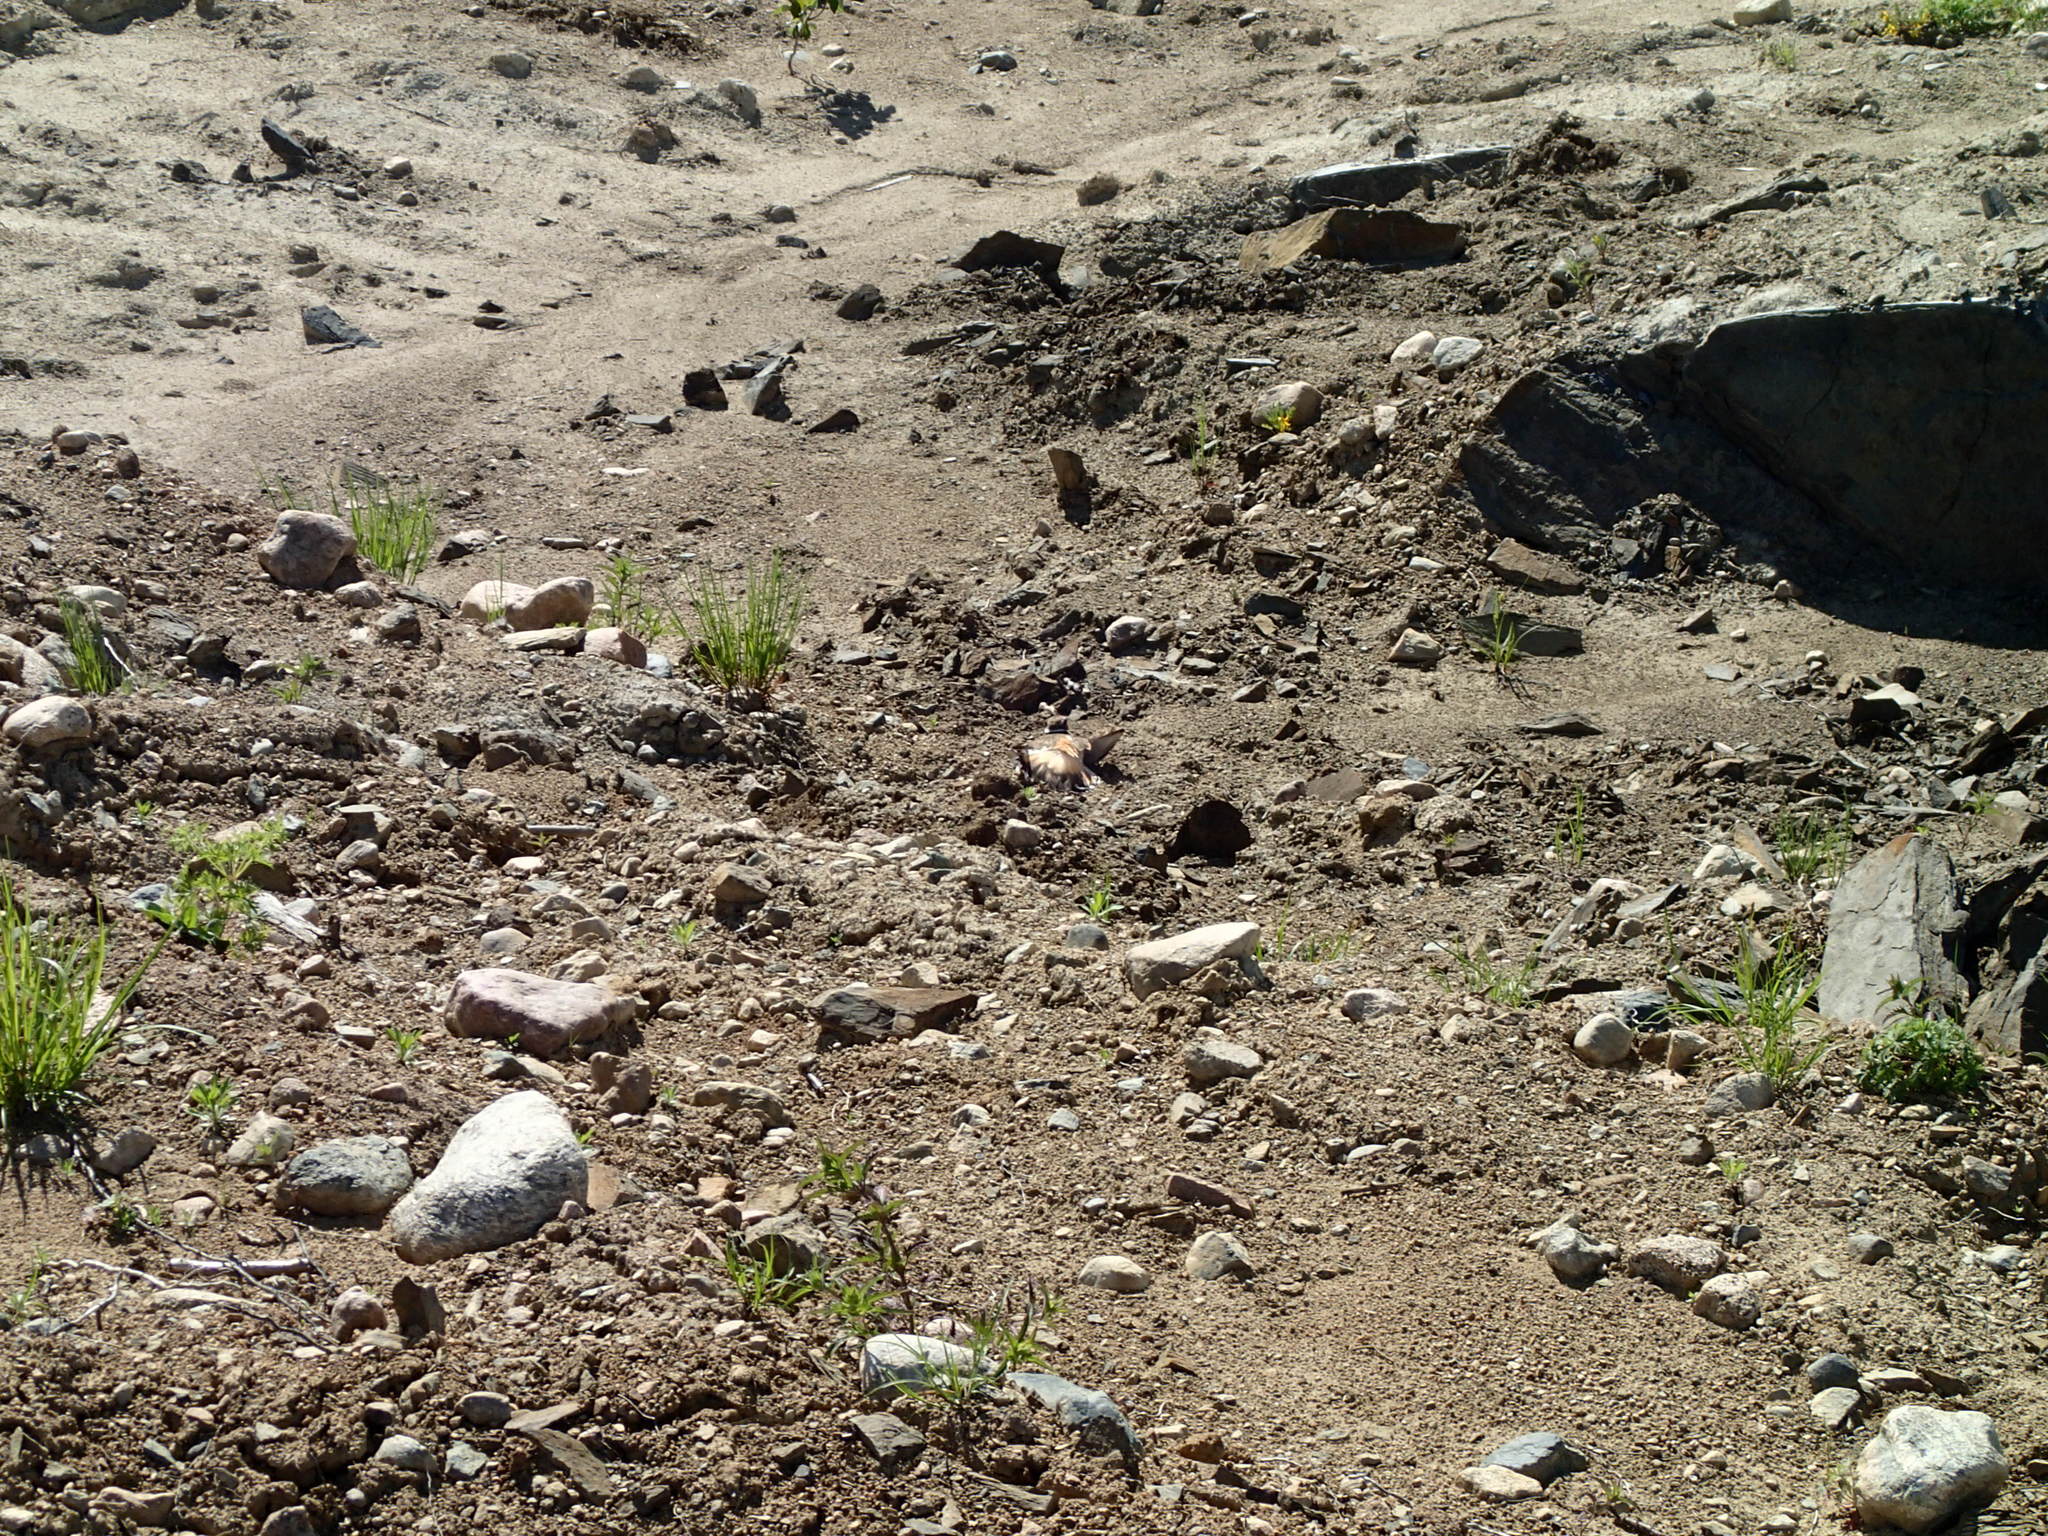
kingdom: Animalia
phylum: Chordata
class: Aves
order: Charadriiformes
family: Charadriidae
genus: Charadrius
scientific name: Charadrius vociferus
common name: Killdeer
